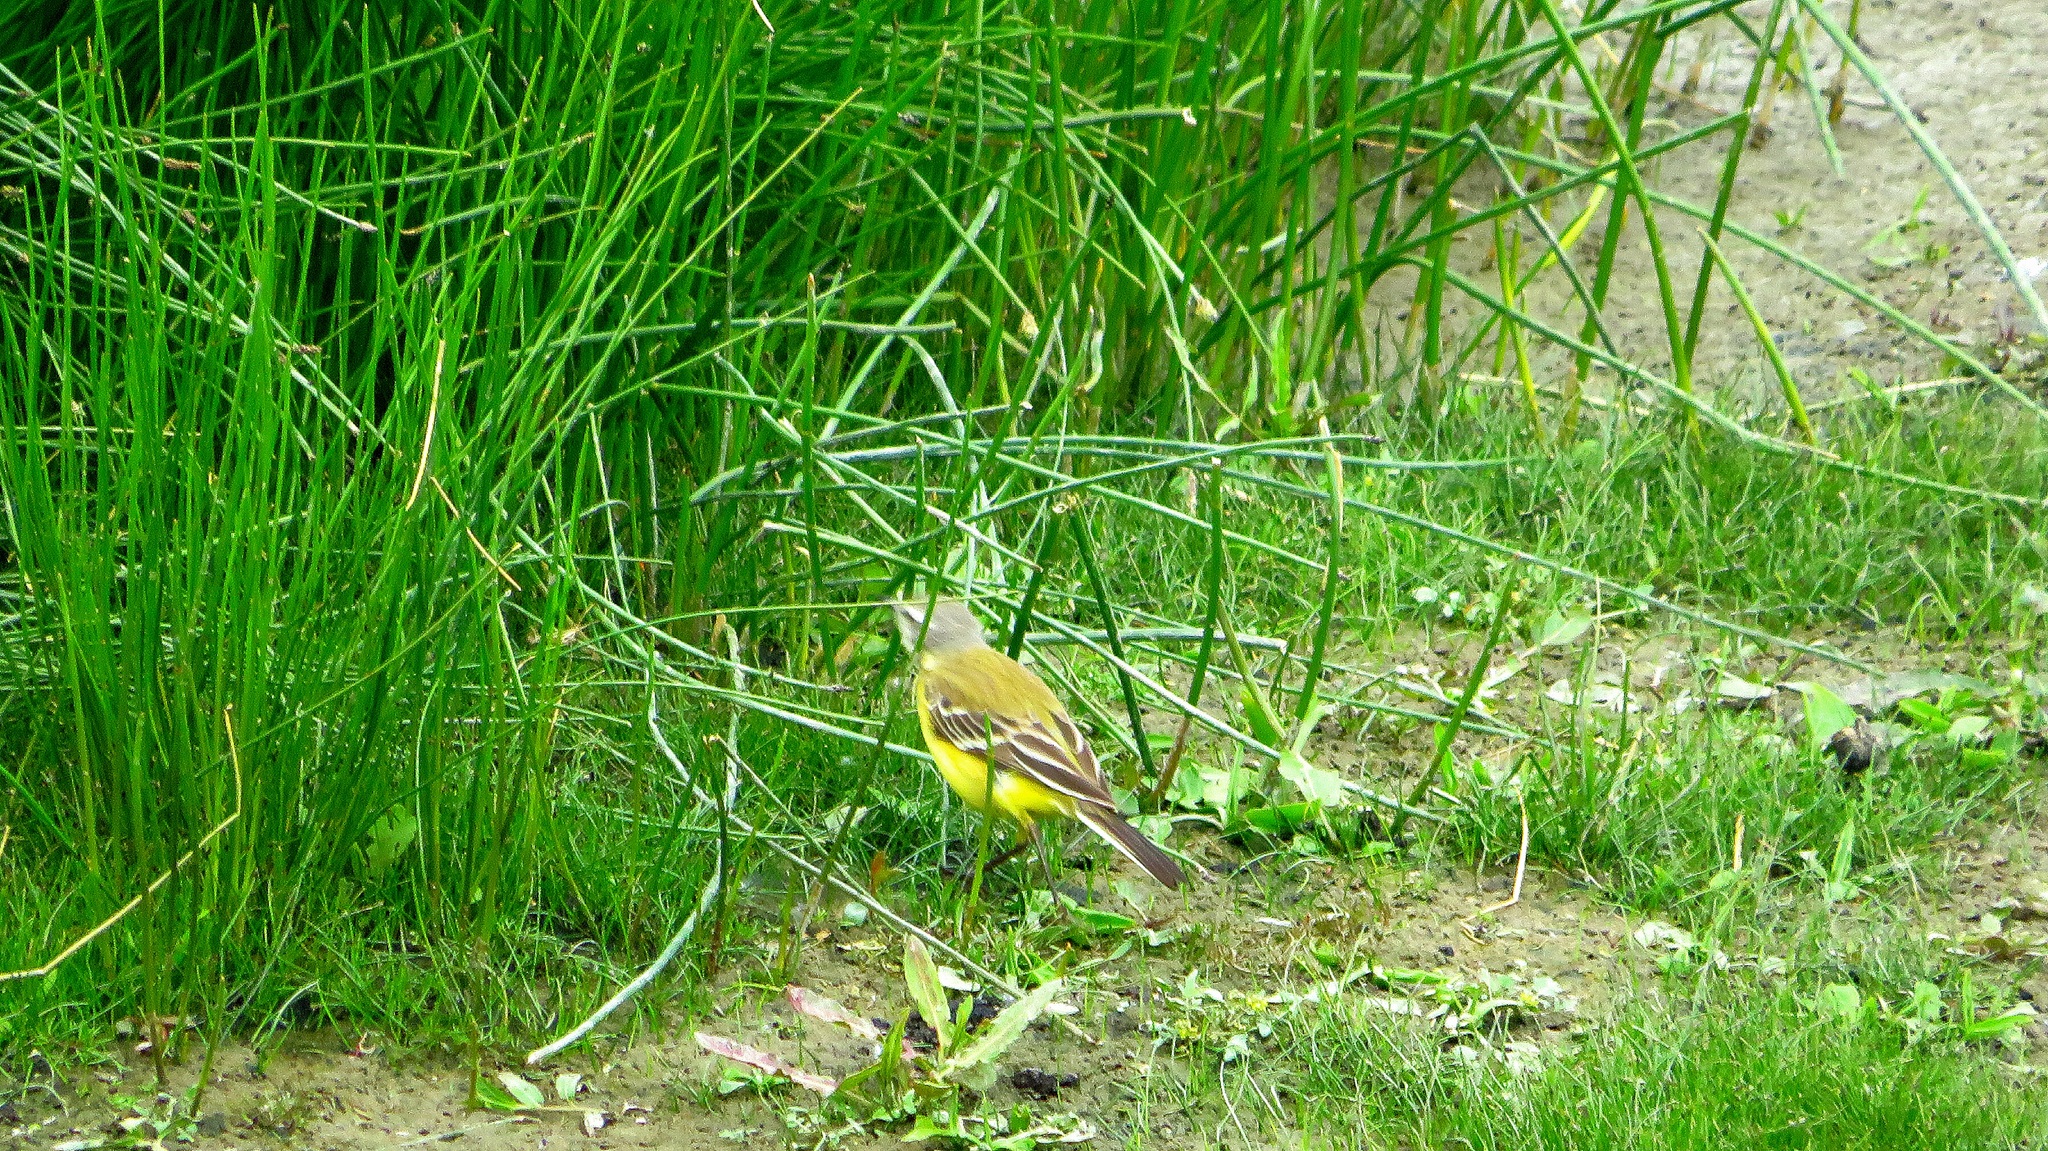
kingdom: Animalia
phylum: Chordata
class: Aves
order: Passeriformes
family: Motacillidae
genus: Motacilla
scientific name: Motacilla flava
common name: Western yellow wagtail
